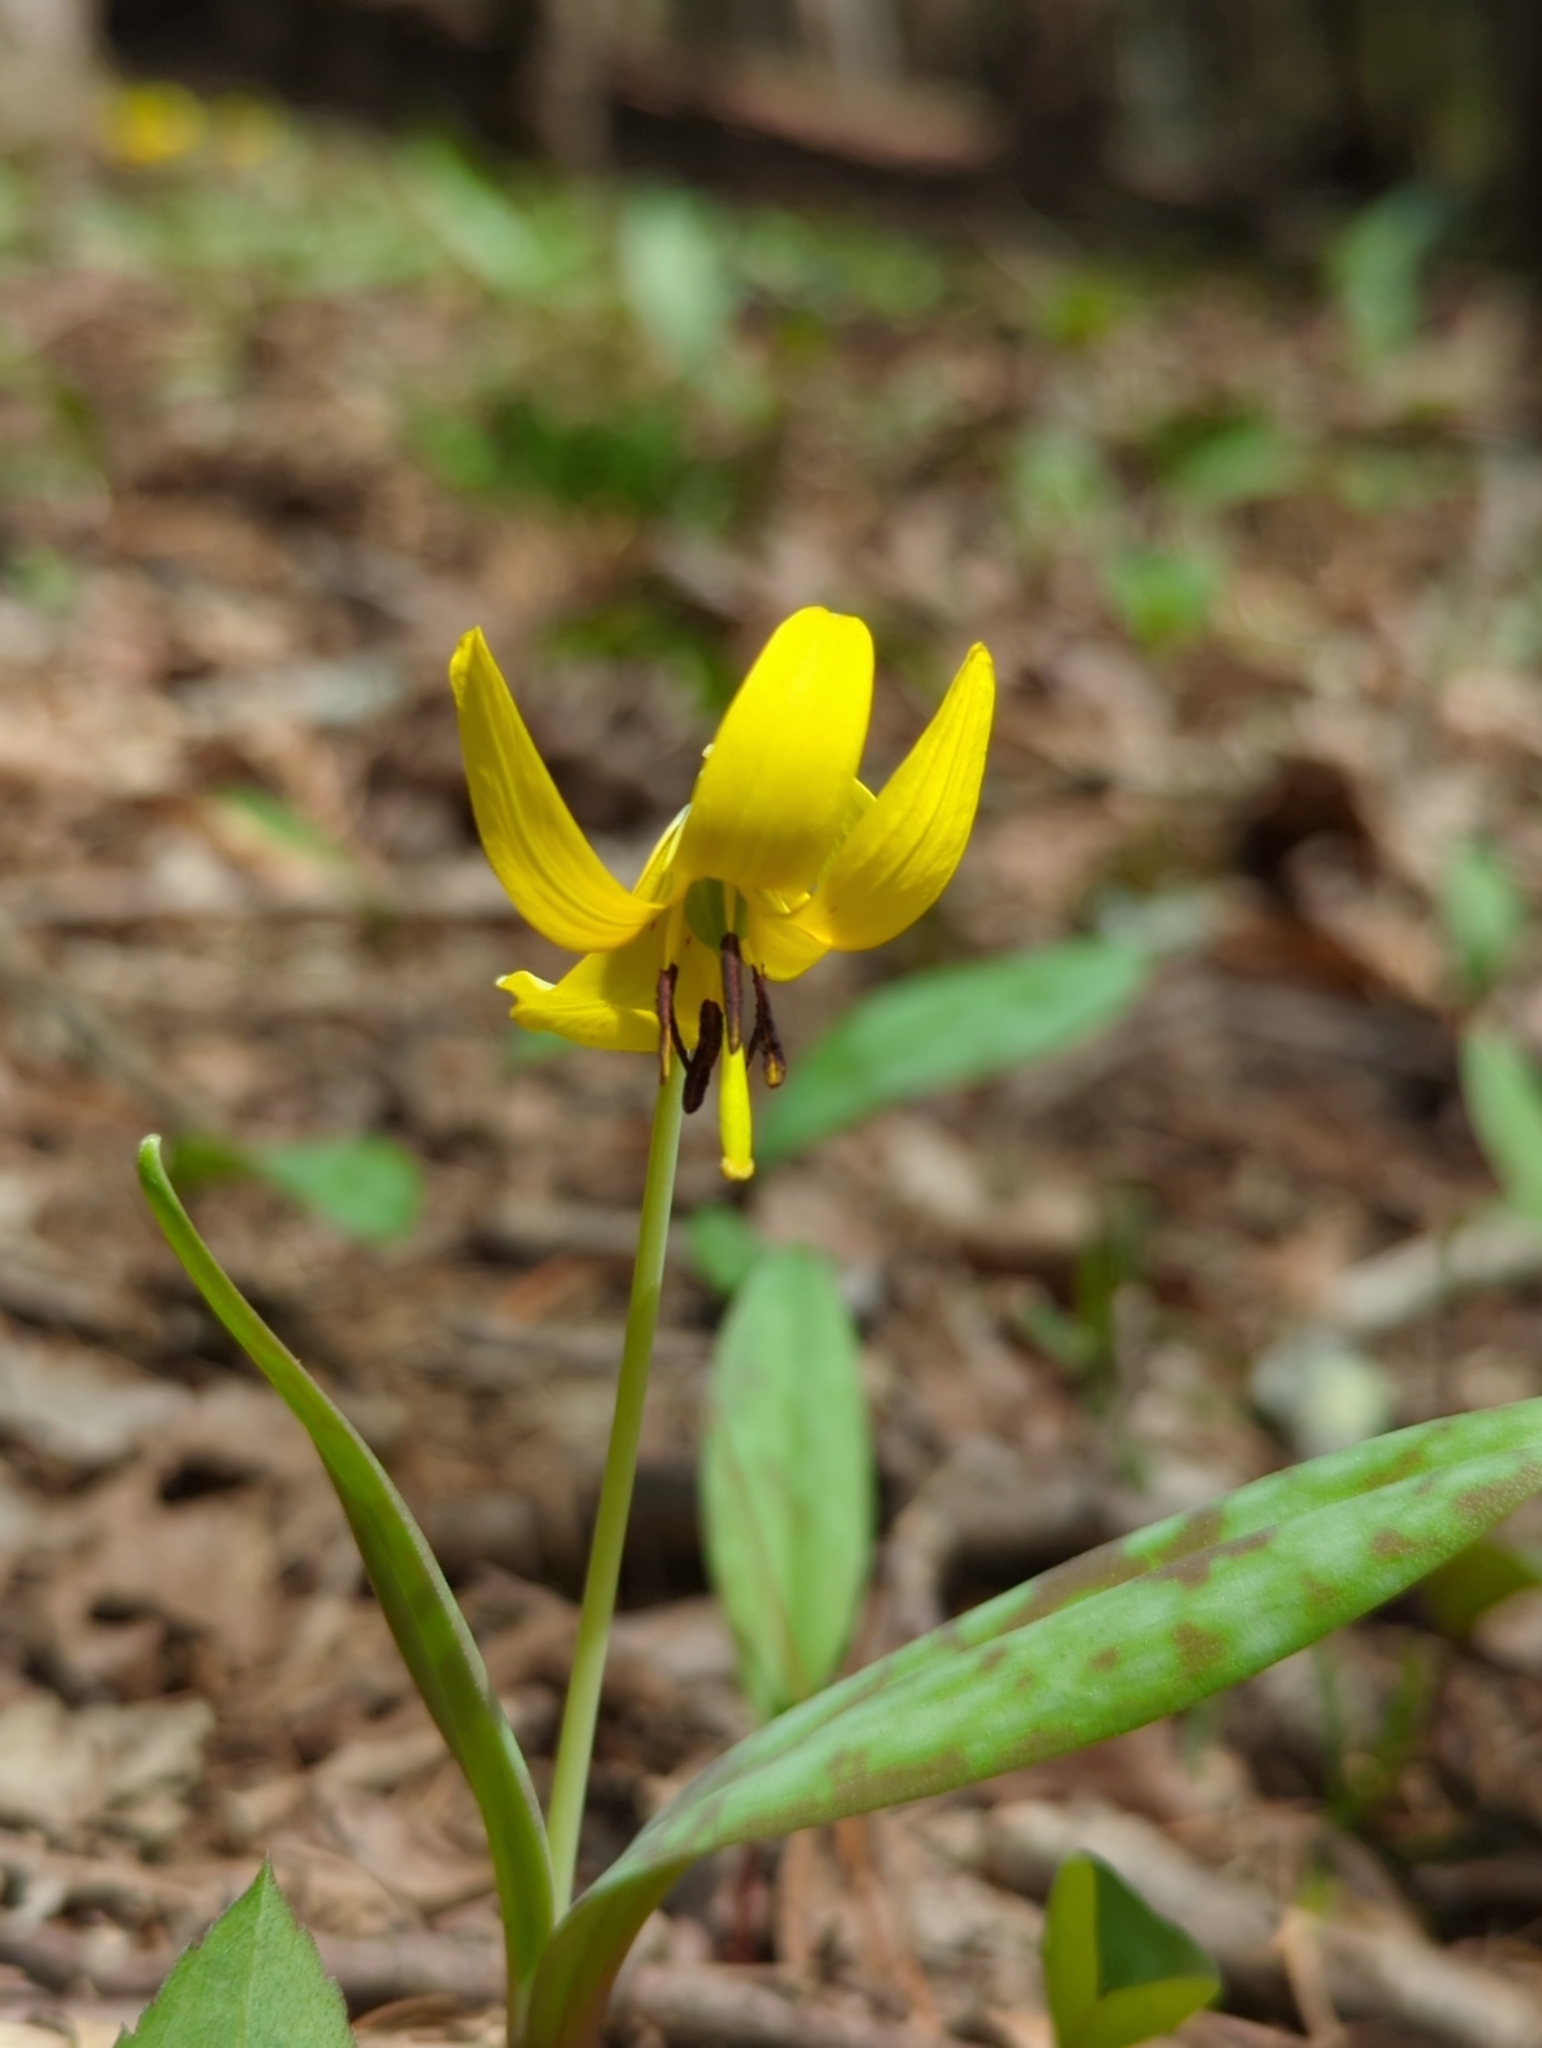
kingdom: Plantae
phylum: Tracheophyta
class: Liliopsida
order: Liliales
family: Liliaceae
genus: Erythronium
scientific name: Erythronium americanum
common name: Yellow adder's-tongue
